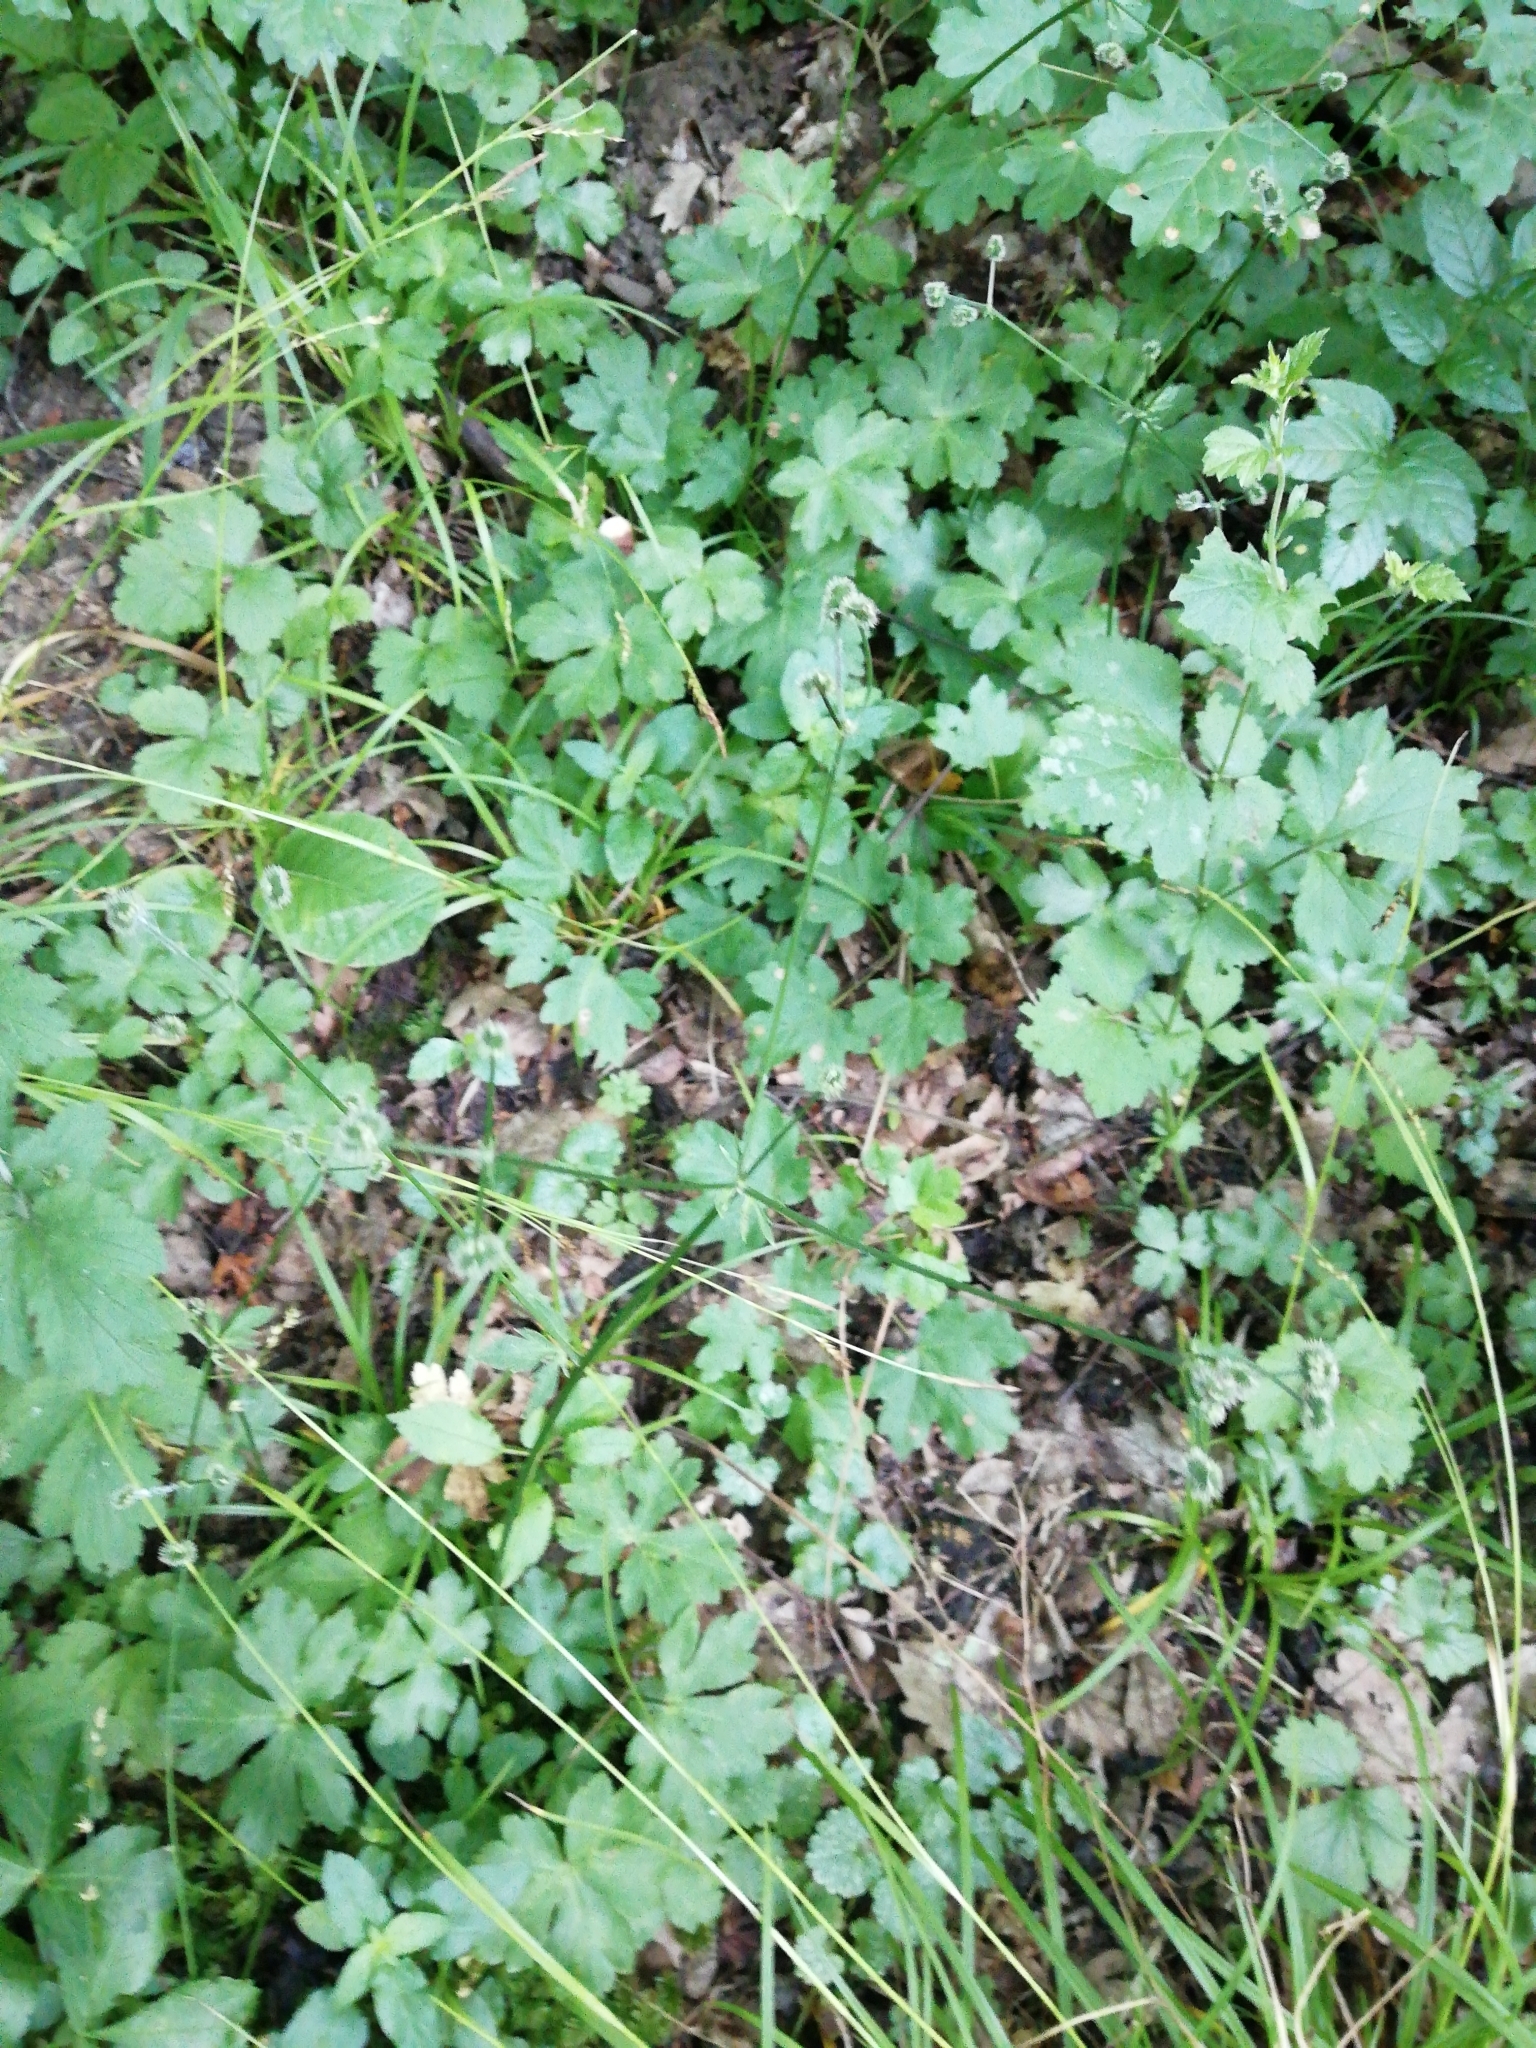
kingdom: Plantae
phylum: Tracheophyta
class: Magnoliopsida
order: Apiales
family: Apiaceae
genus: Sanicula
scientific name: Sanicula europaea
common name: Sanicle
